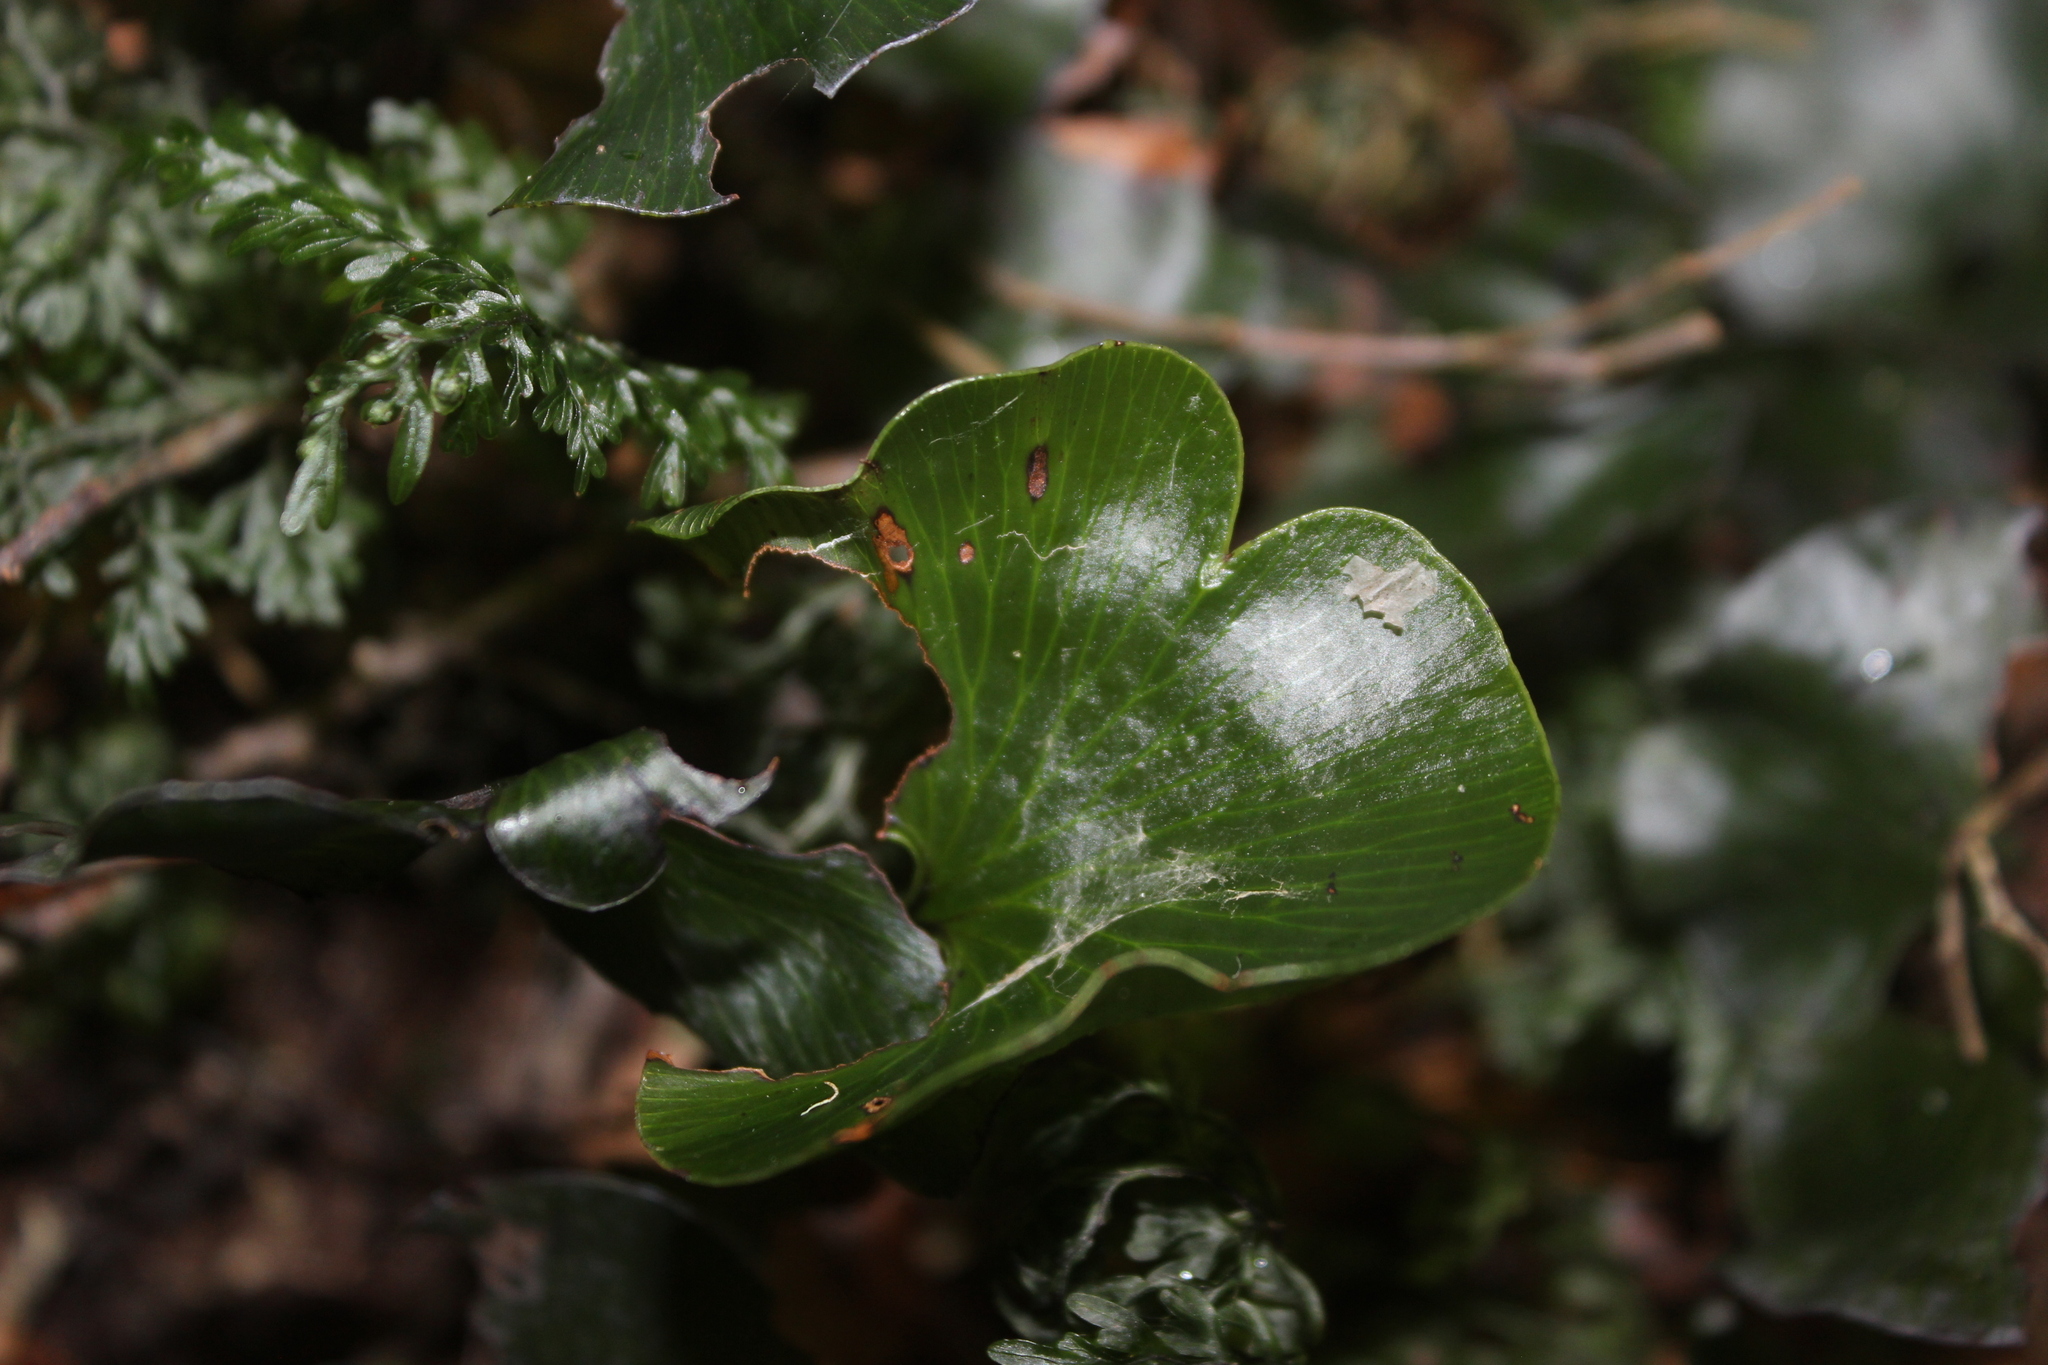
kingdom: Plantae
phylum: Tracheophyta
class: Polypodiopsida
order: Hymenophyllales
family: Hymenophyllaceae
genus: Hymenophyllum
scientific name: Hymenophyllum nephrophyllum
